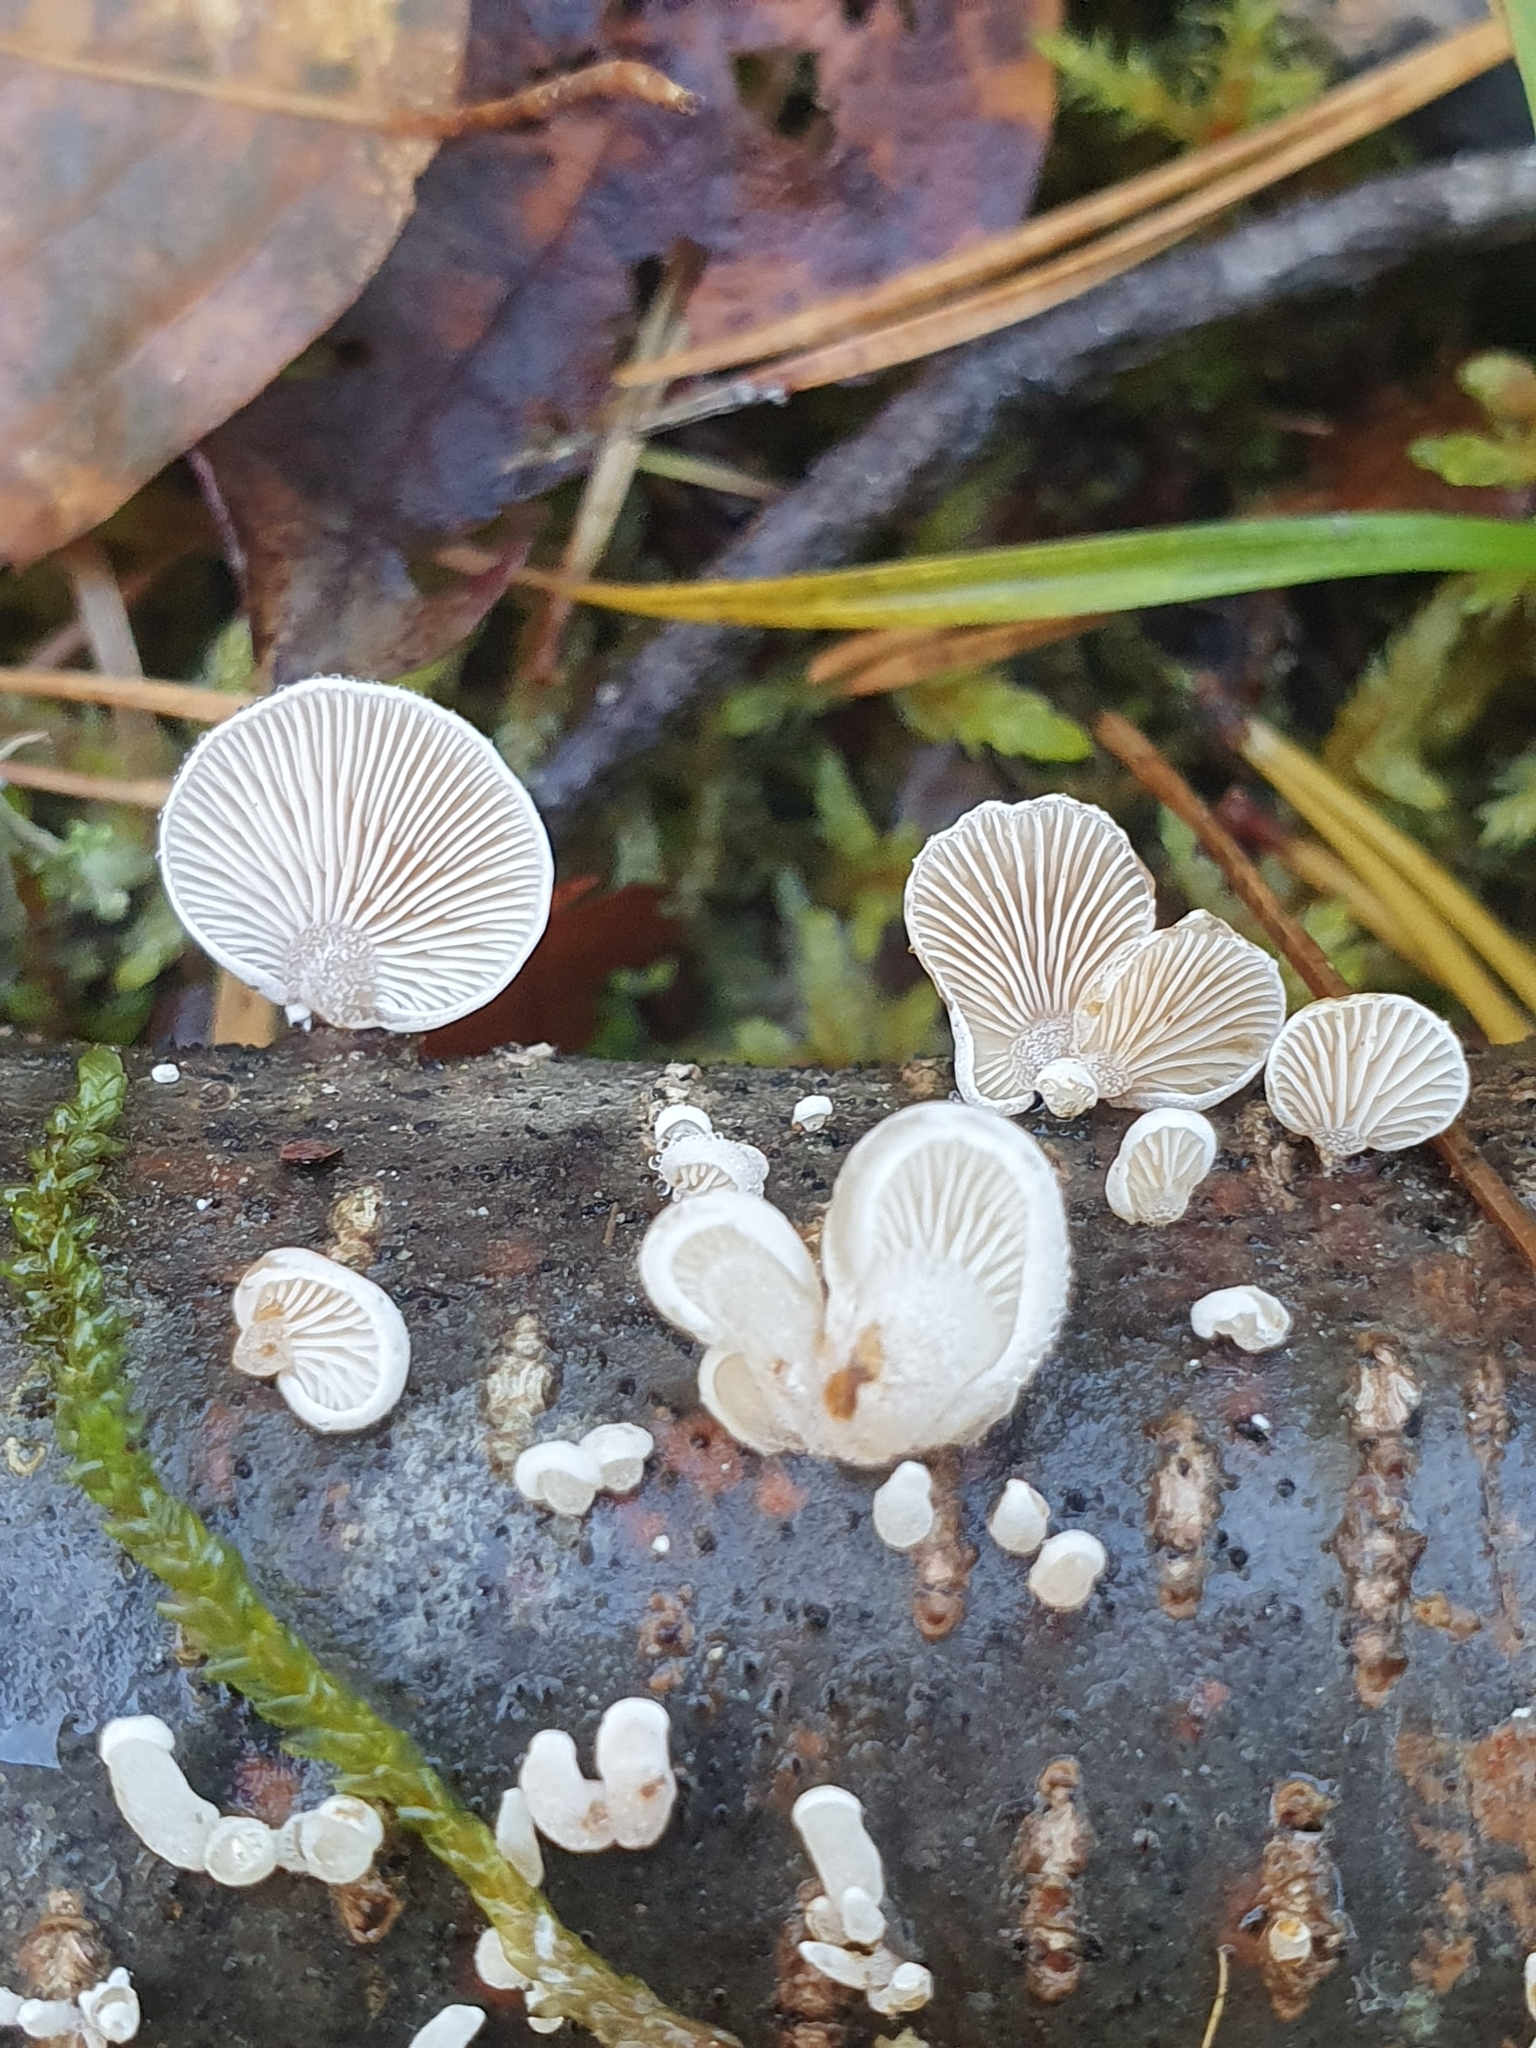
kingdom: Fungi
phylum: Basidiomycota
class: Agaricomycetes
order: Agaricales
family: Mycenaceae
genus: Panellus
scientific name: Panellus mitis
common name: Elastic oysterling
